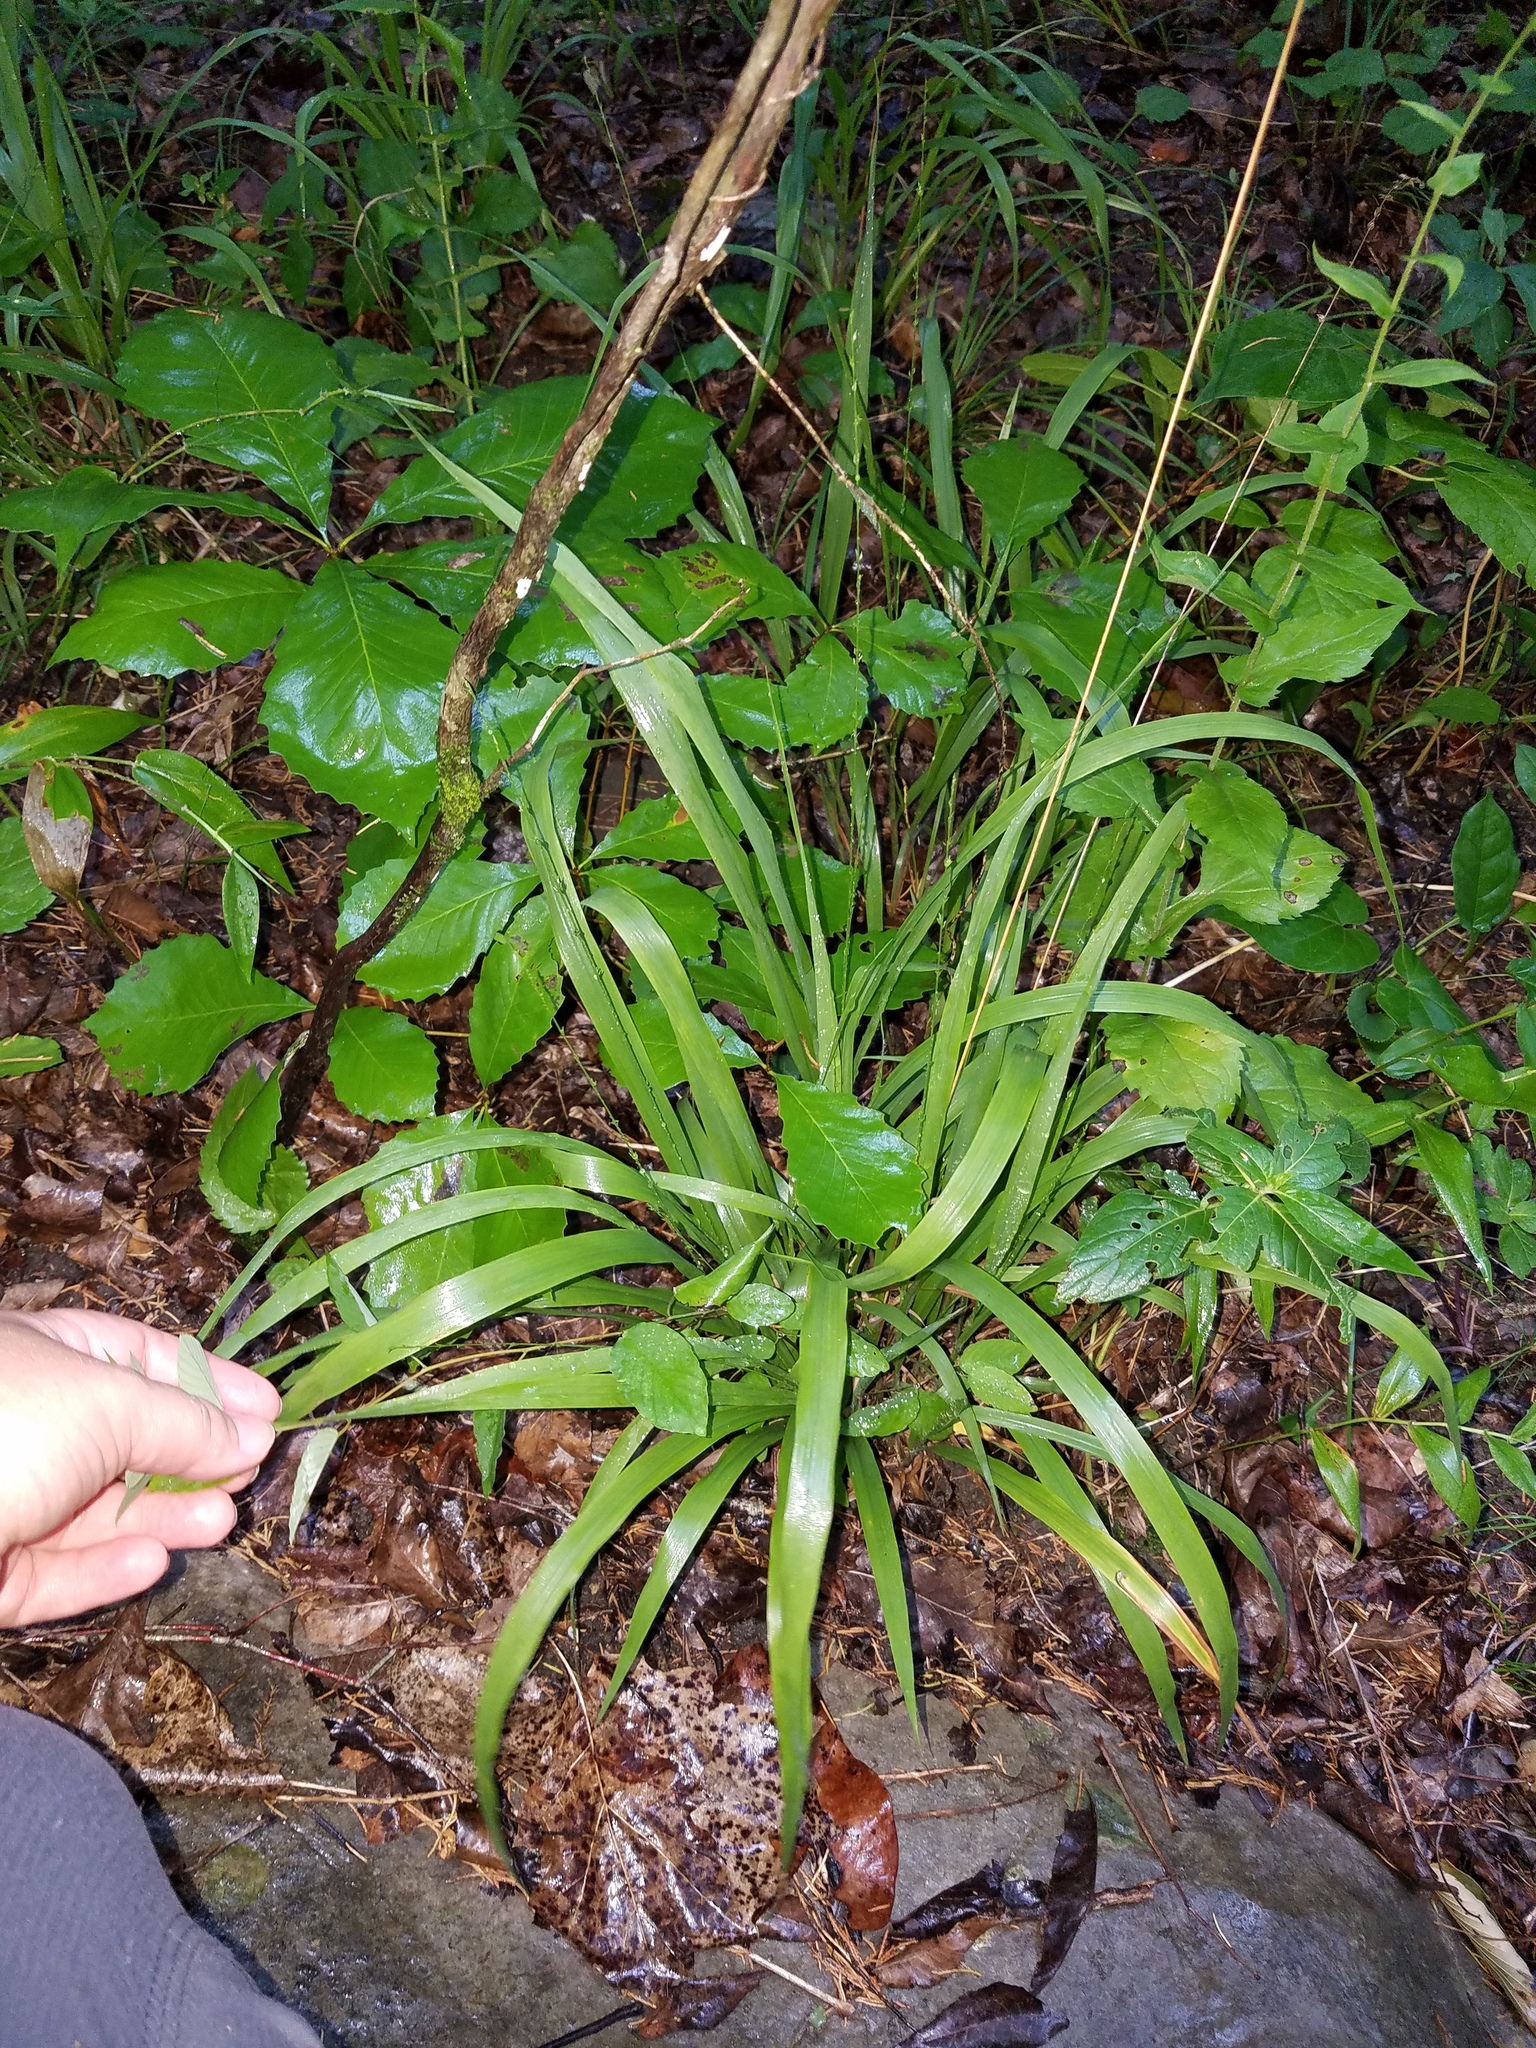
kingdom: Plantae
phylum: Tracheophyta
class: Liliopsida
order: Poales
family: Poaceae
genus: Chasmanthium
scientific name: Chasmanthium laxum
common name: Slender chasmanthium
